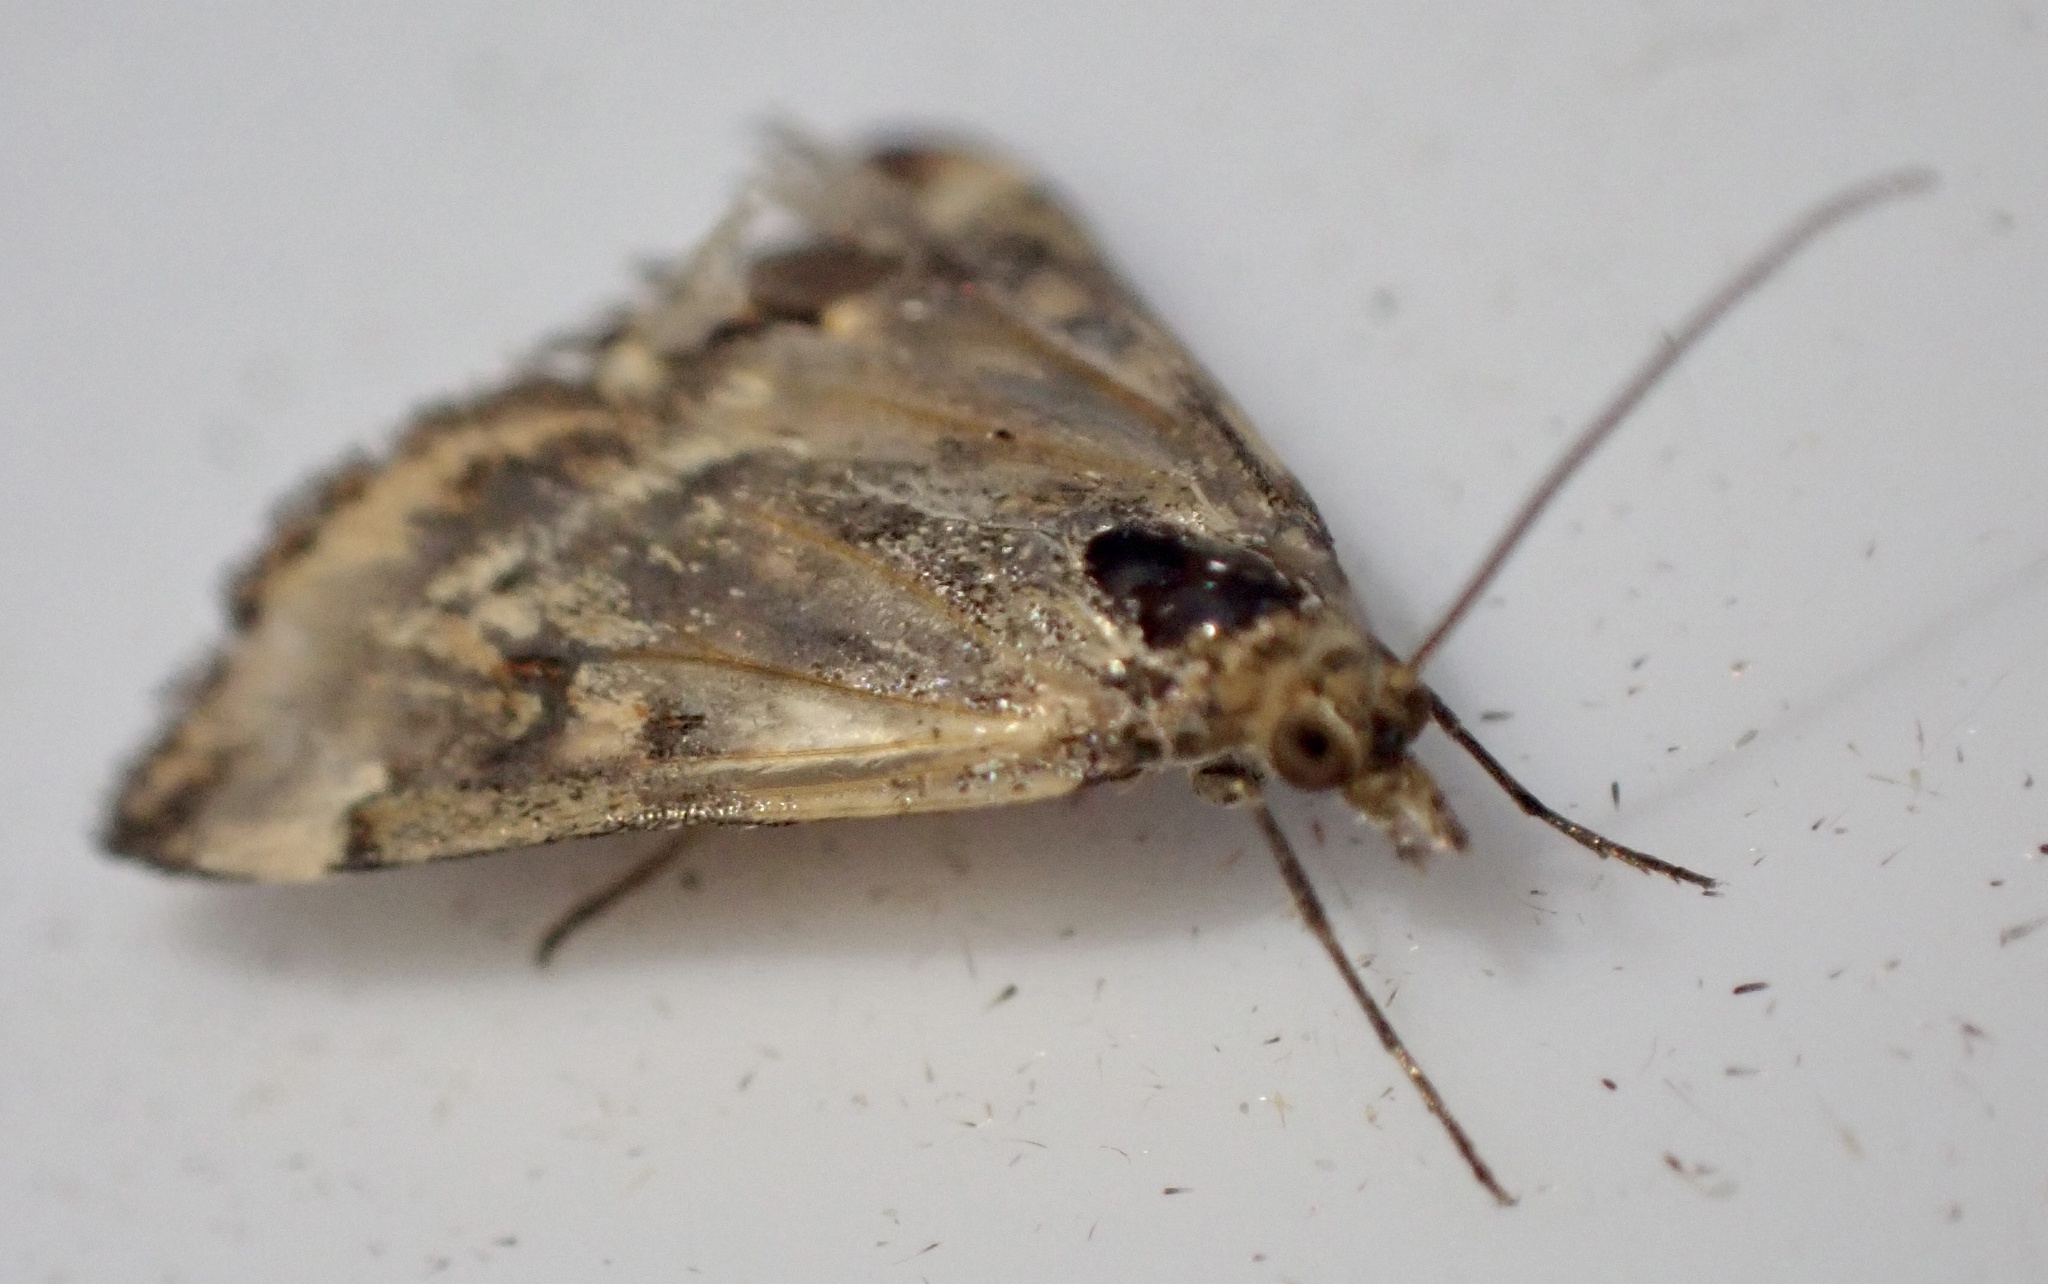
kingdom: Animalia
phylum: Arthropoda
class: Insecta
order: Lepidoptera
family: Crambidae
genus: Pyrausta
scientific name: Pyrausta despicata
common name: Straw-barred pearl
